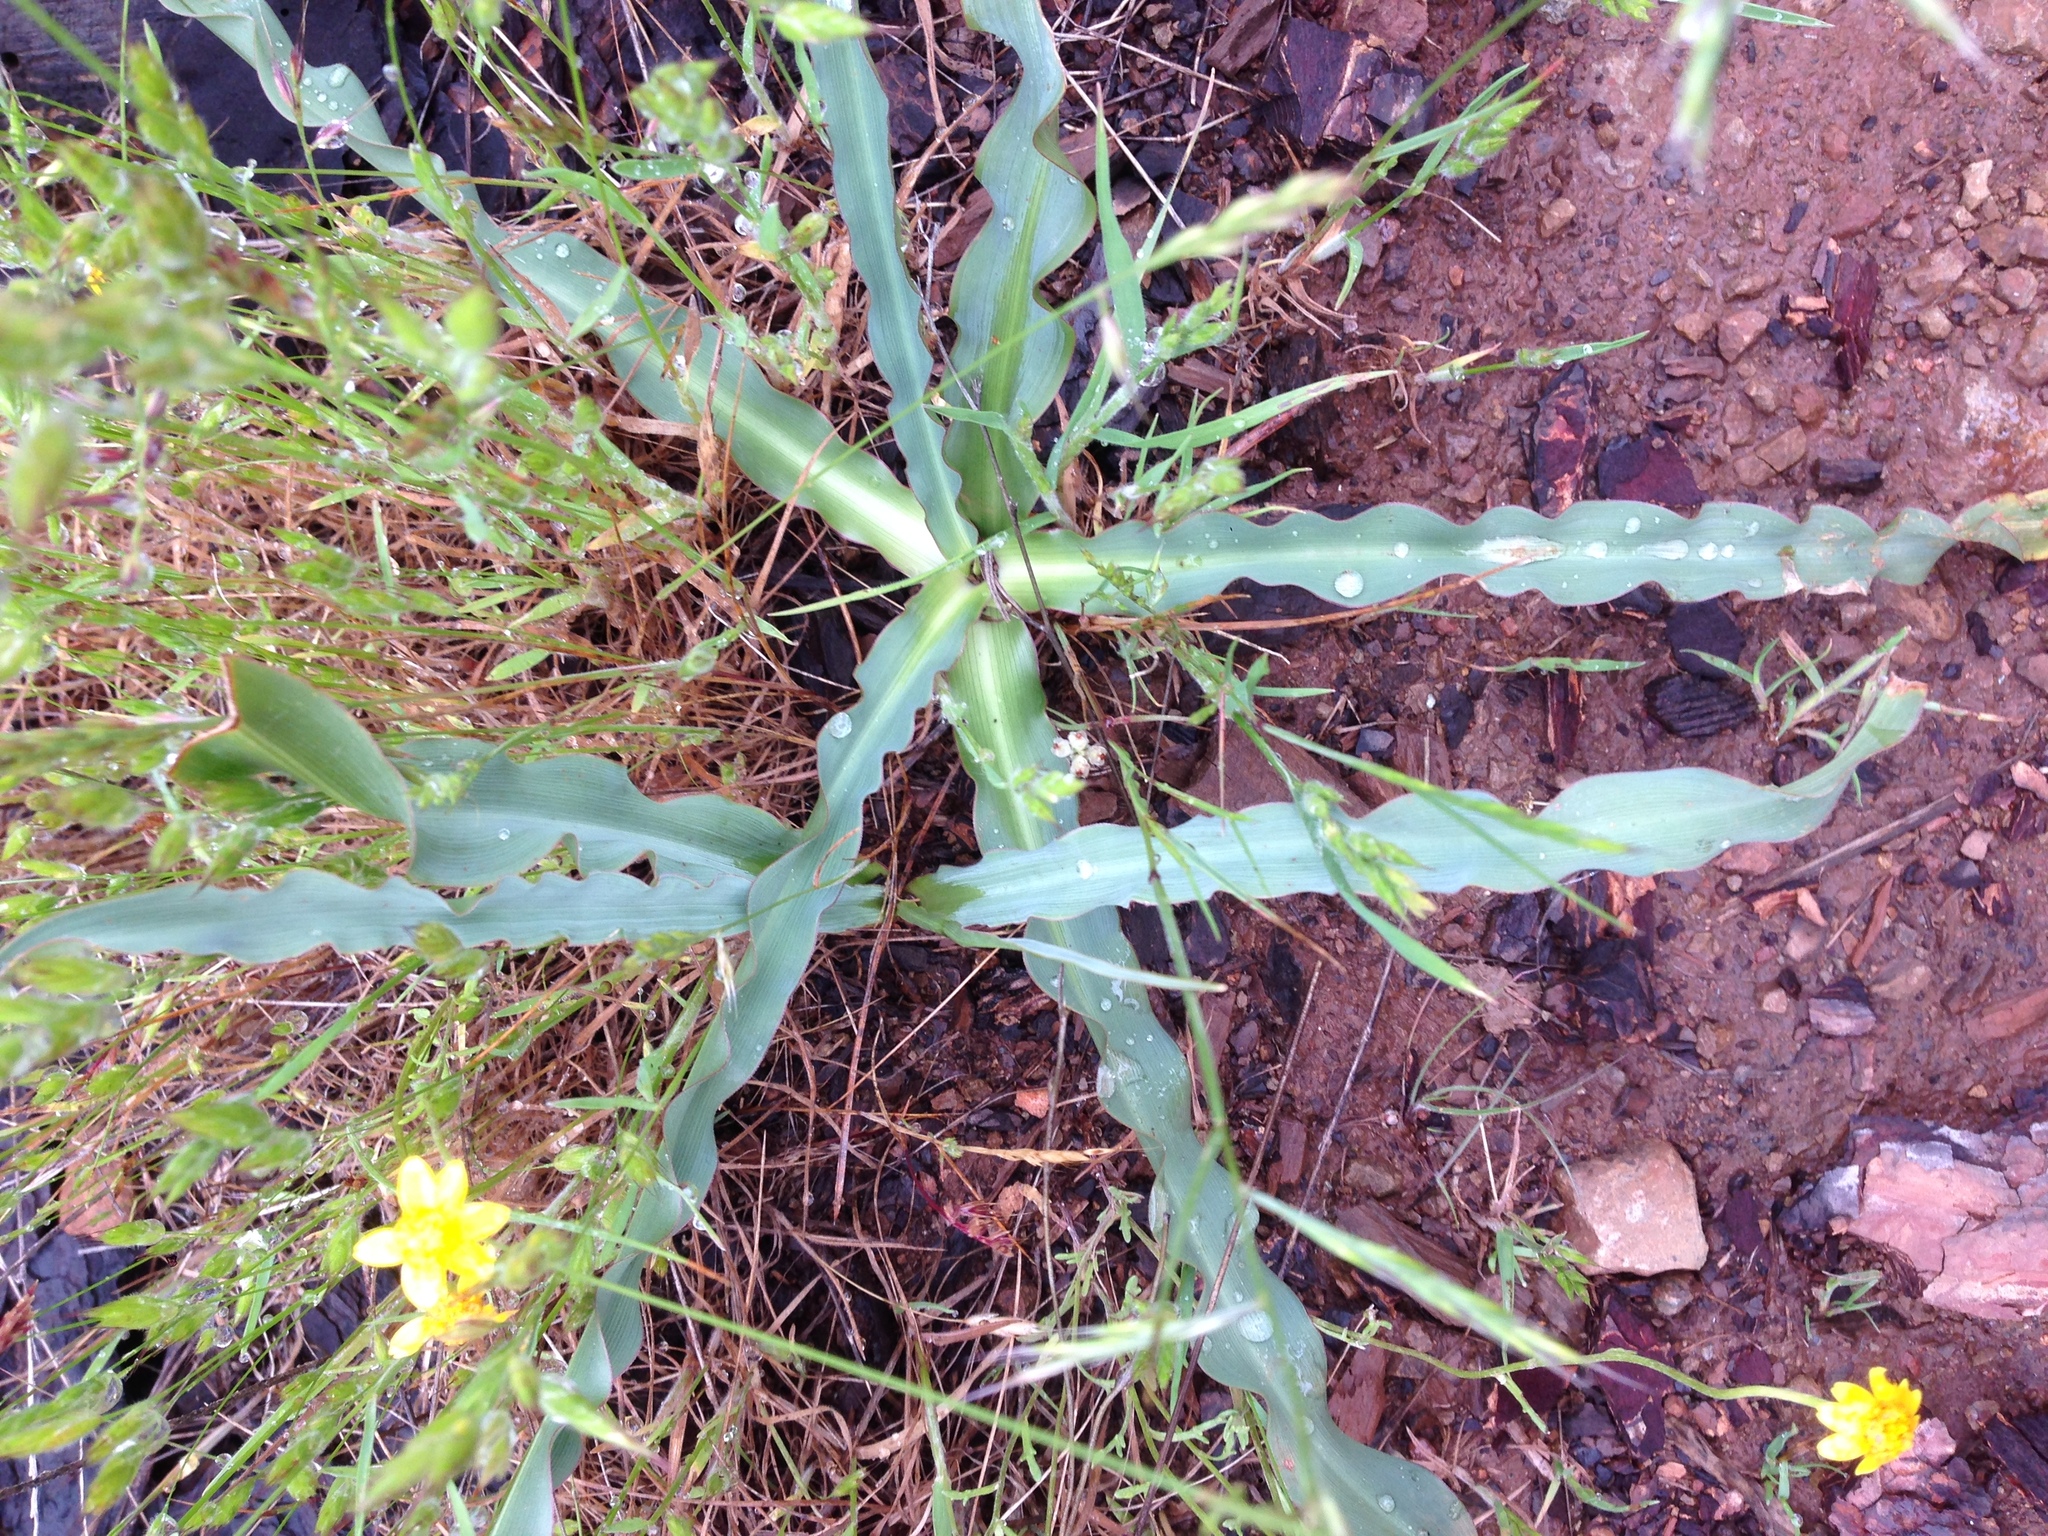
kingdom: Plantae
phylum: Tracheophyta
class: Liliopsida
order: Asparagales
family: Asparagaceae
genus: Chlorogalum
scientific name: Chlorogalum pomeridianum
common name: Amole
